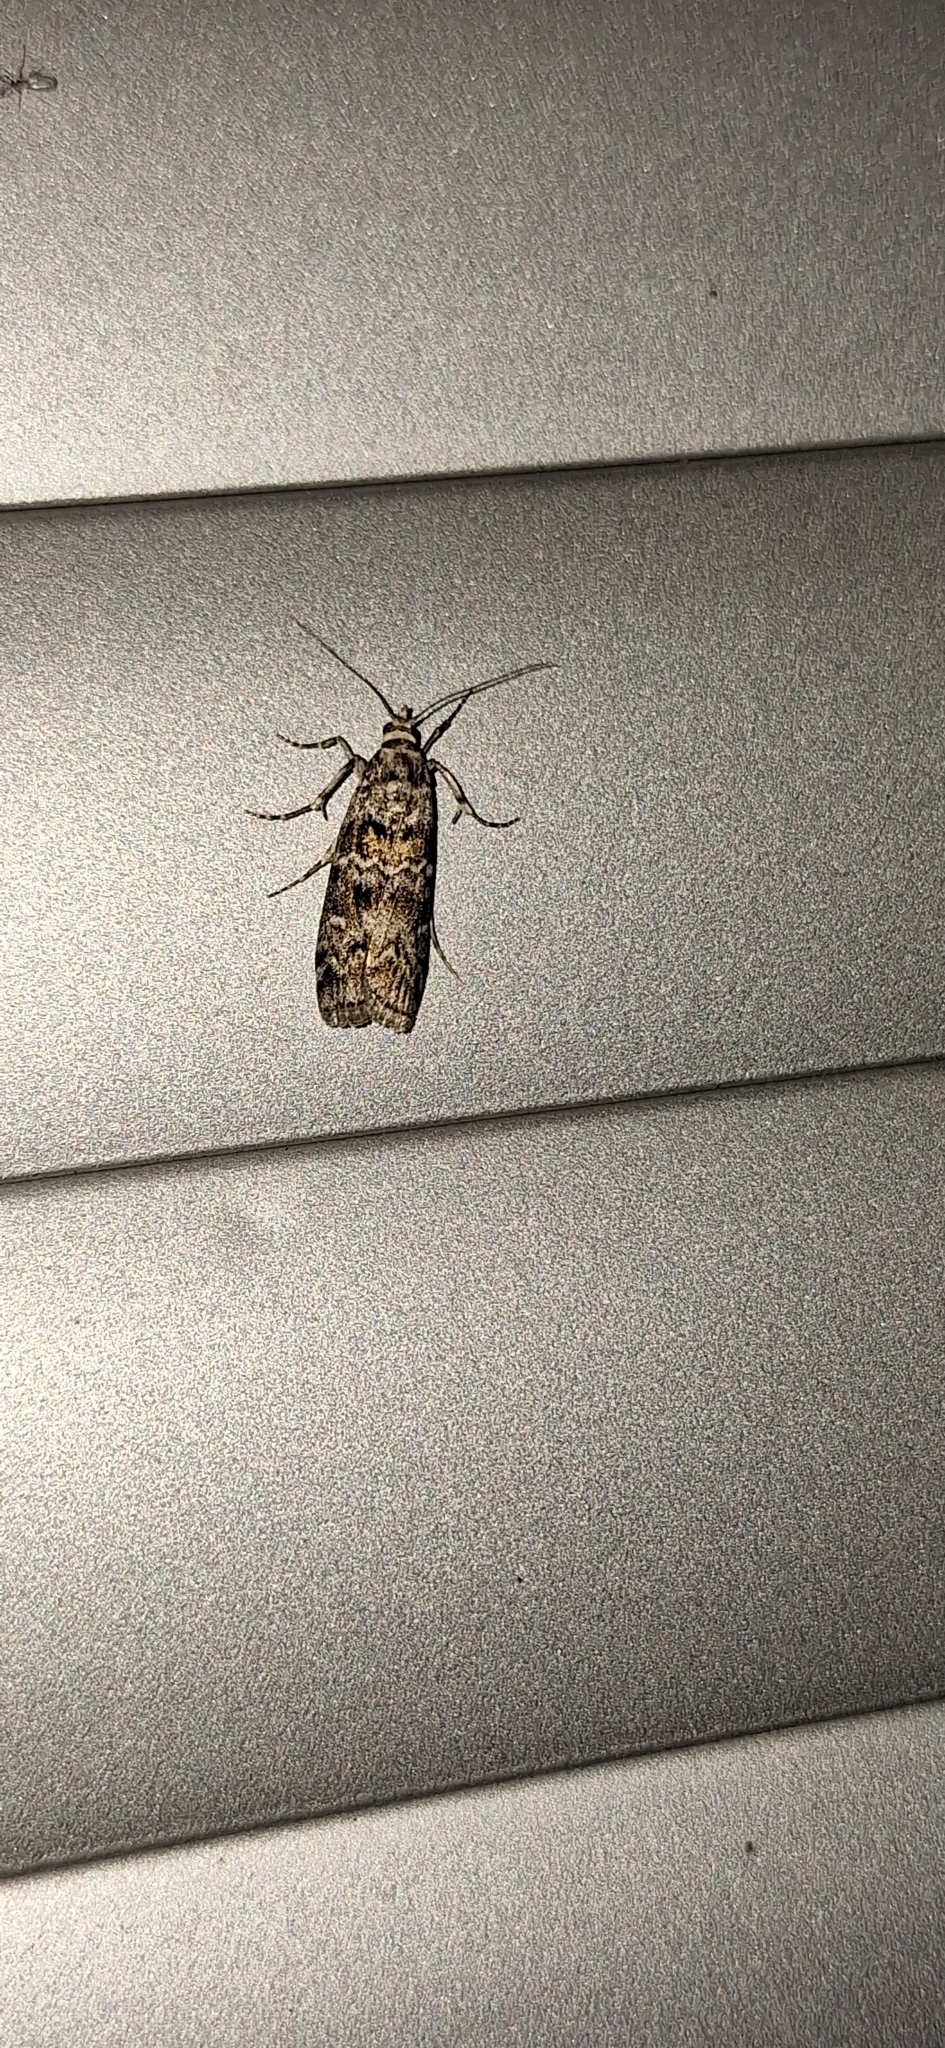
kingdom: Animalia
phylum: Arthropoda
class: Insecta
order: Lepidoptera
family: Pyralidae
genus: Dioryctria
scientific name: Dioryctria abietella
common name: Dark pine knot-horn
